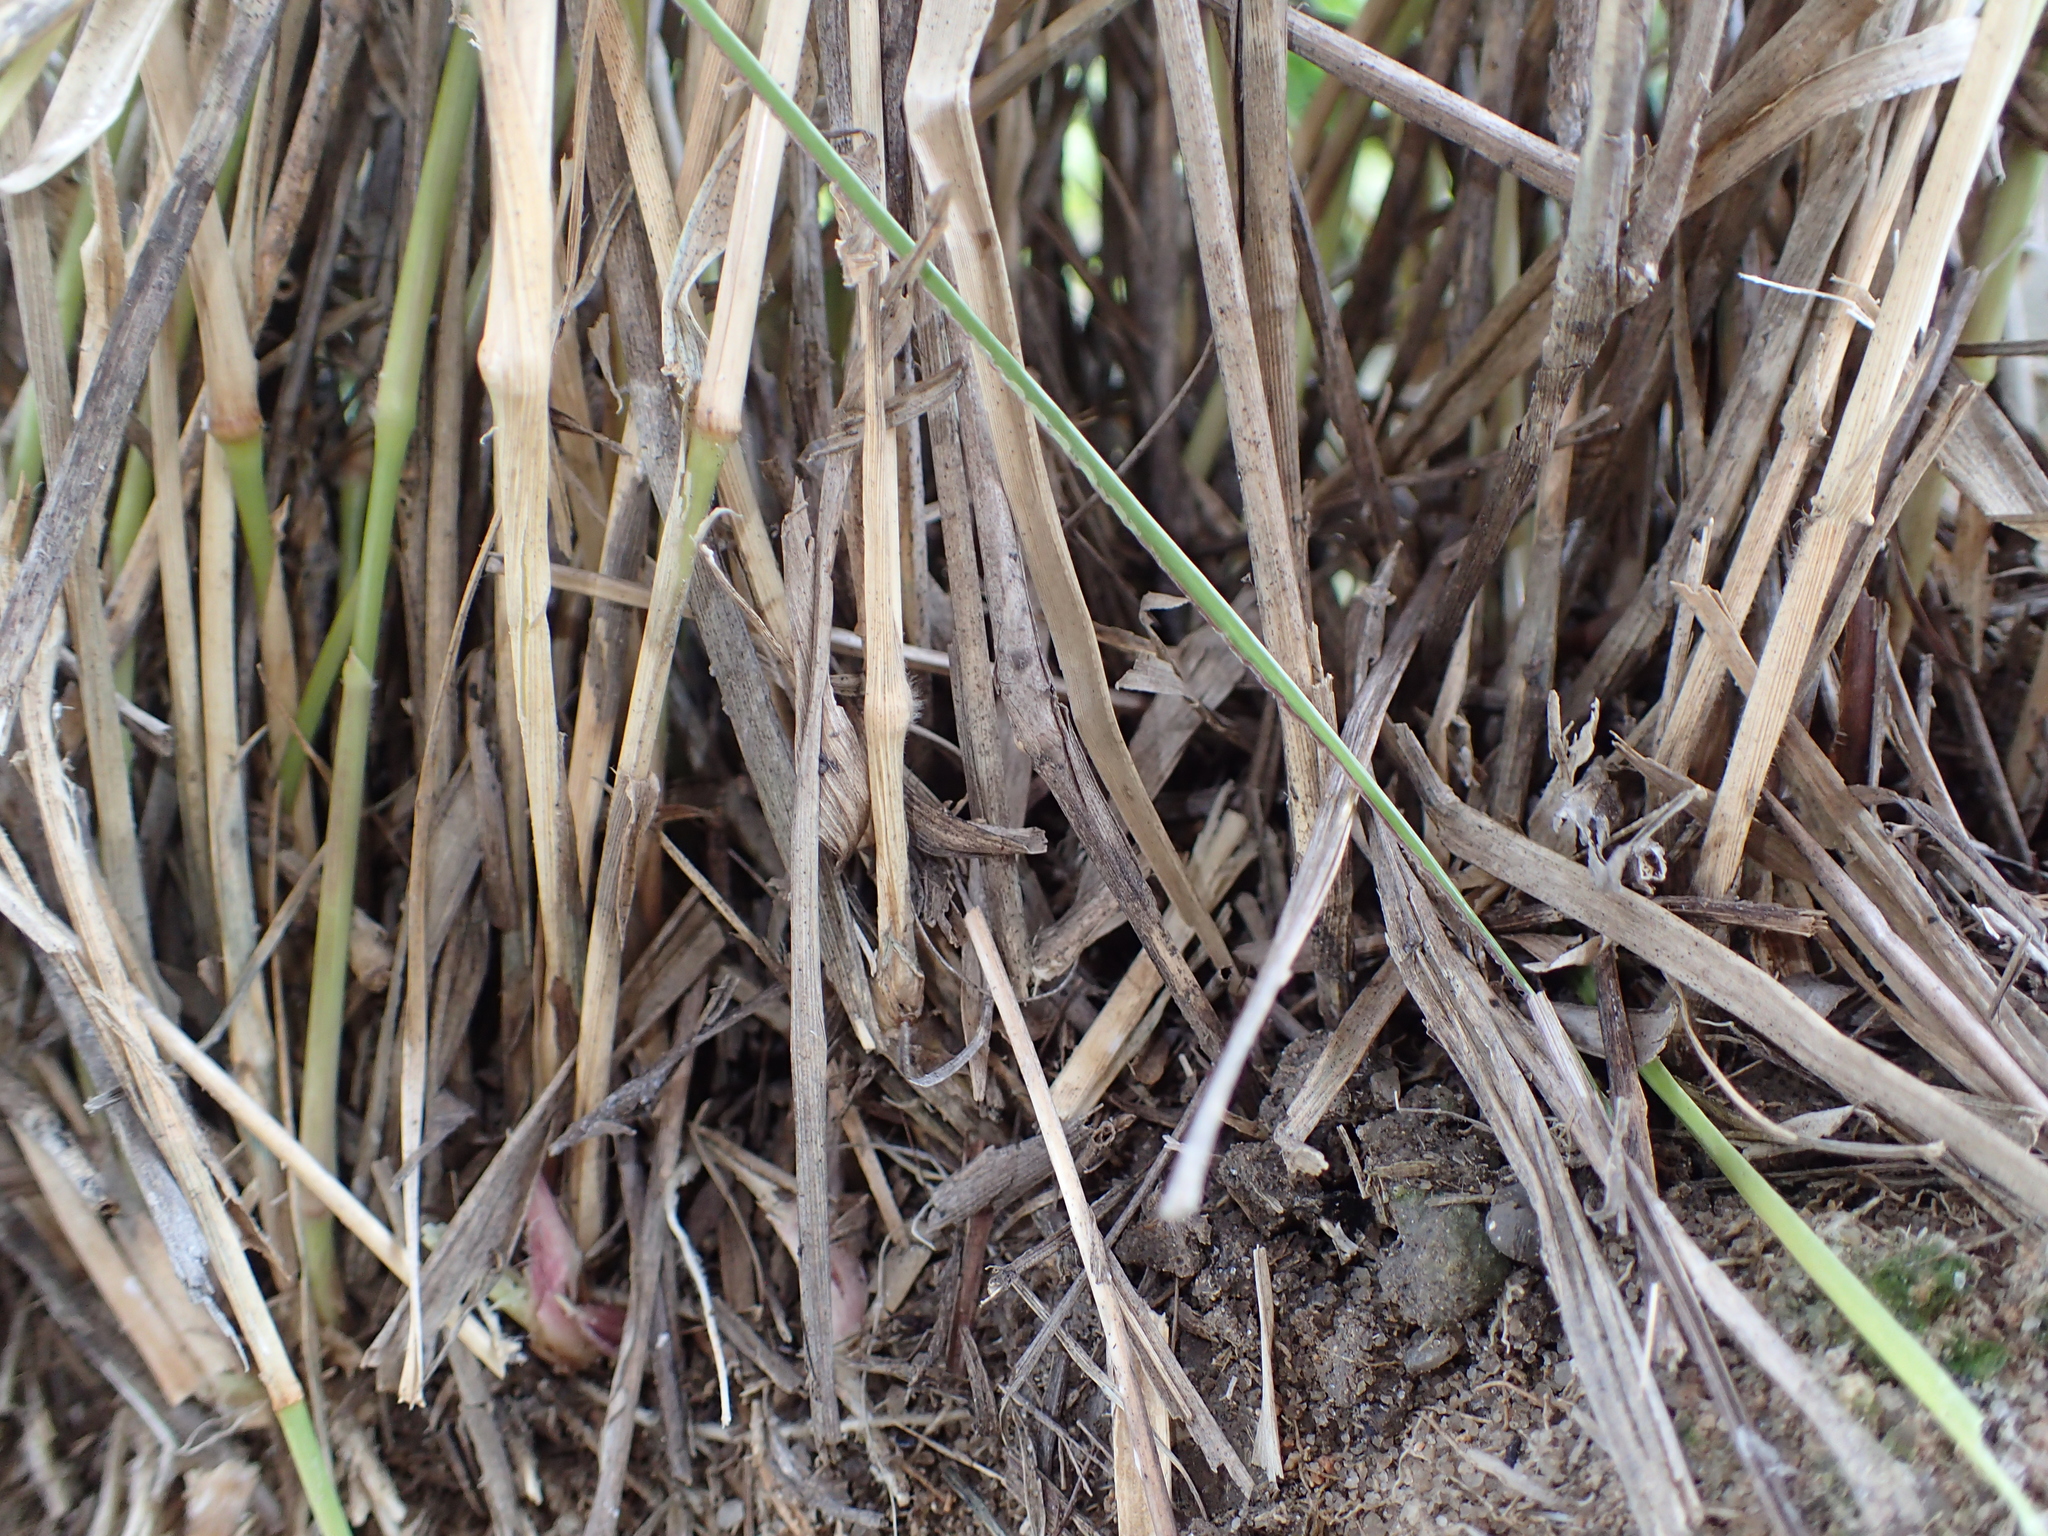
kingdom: Plantae
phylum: Tracheophyta
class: Liliopsida
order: Poales
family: Poaceae
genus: Urochloa
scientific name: Urochloa brizantha
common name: Palisade signalgrass
